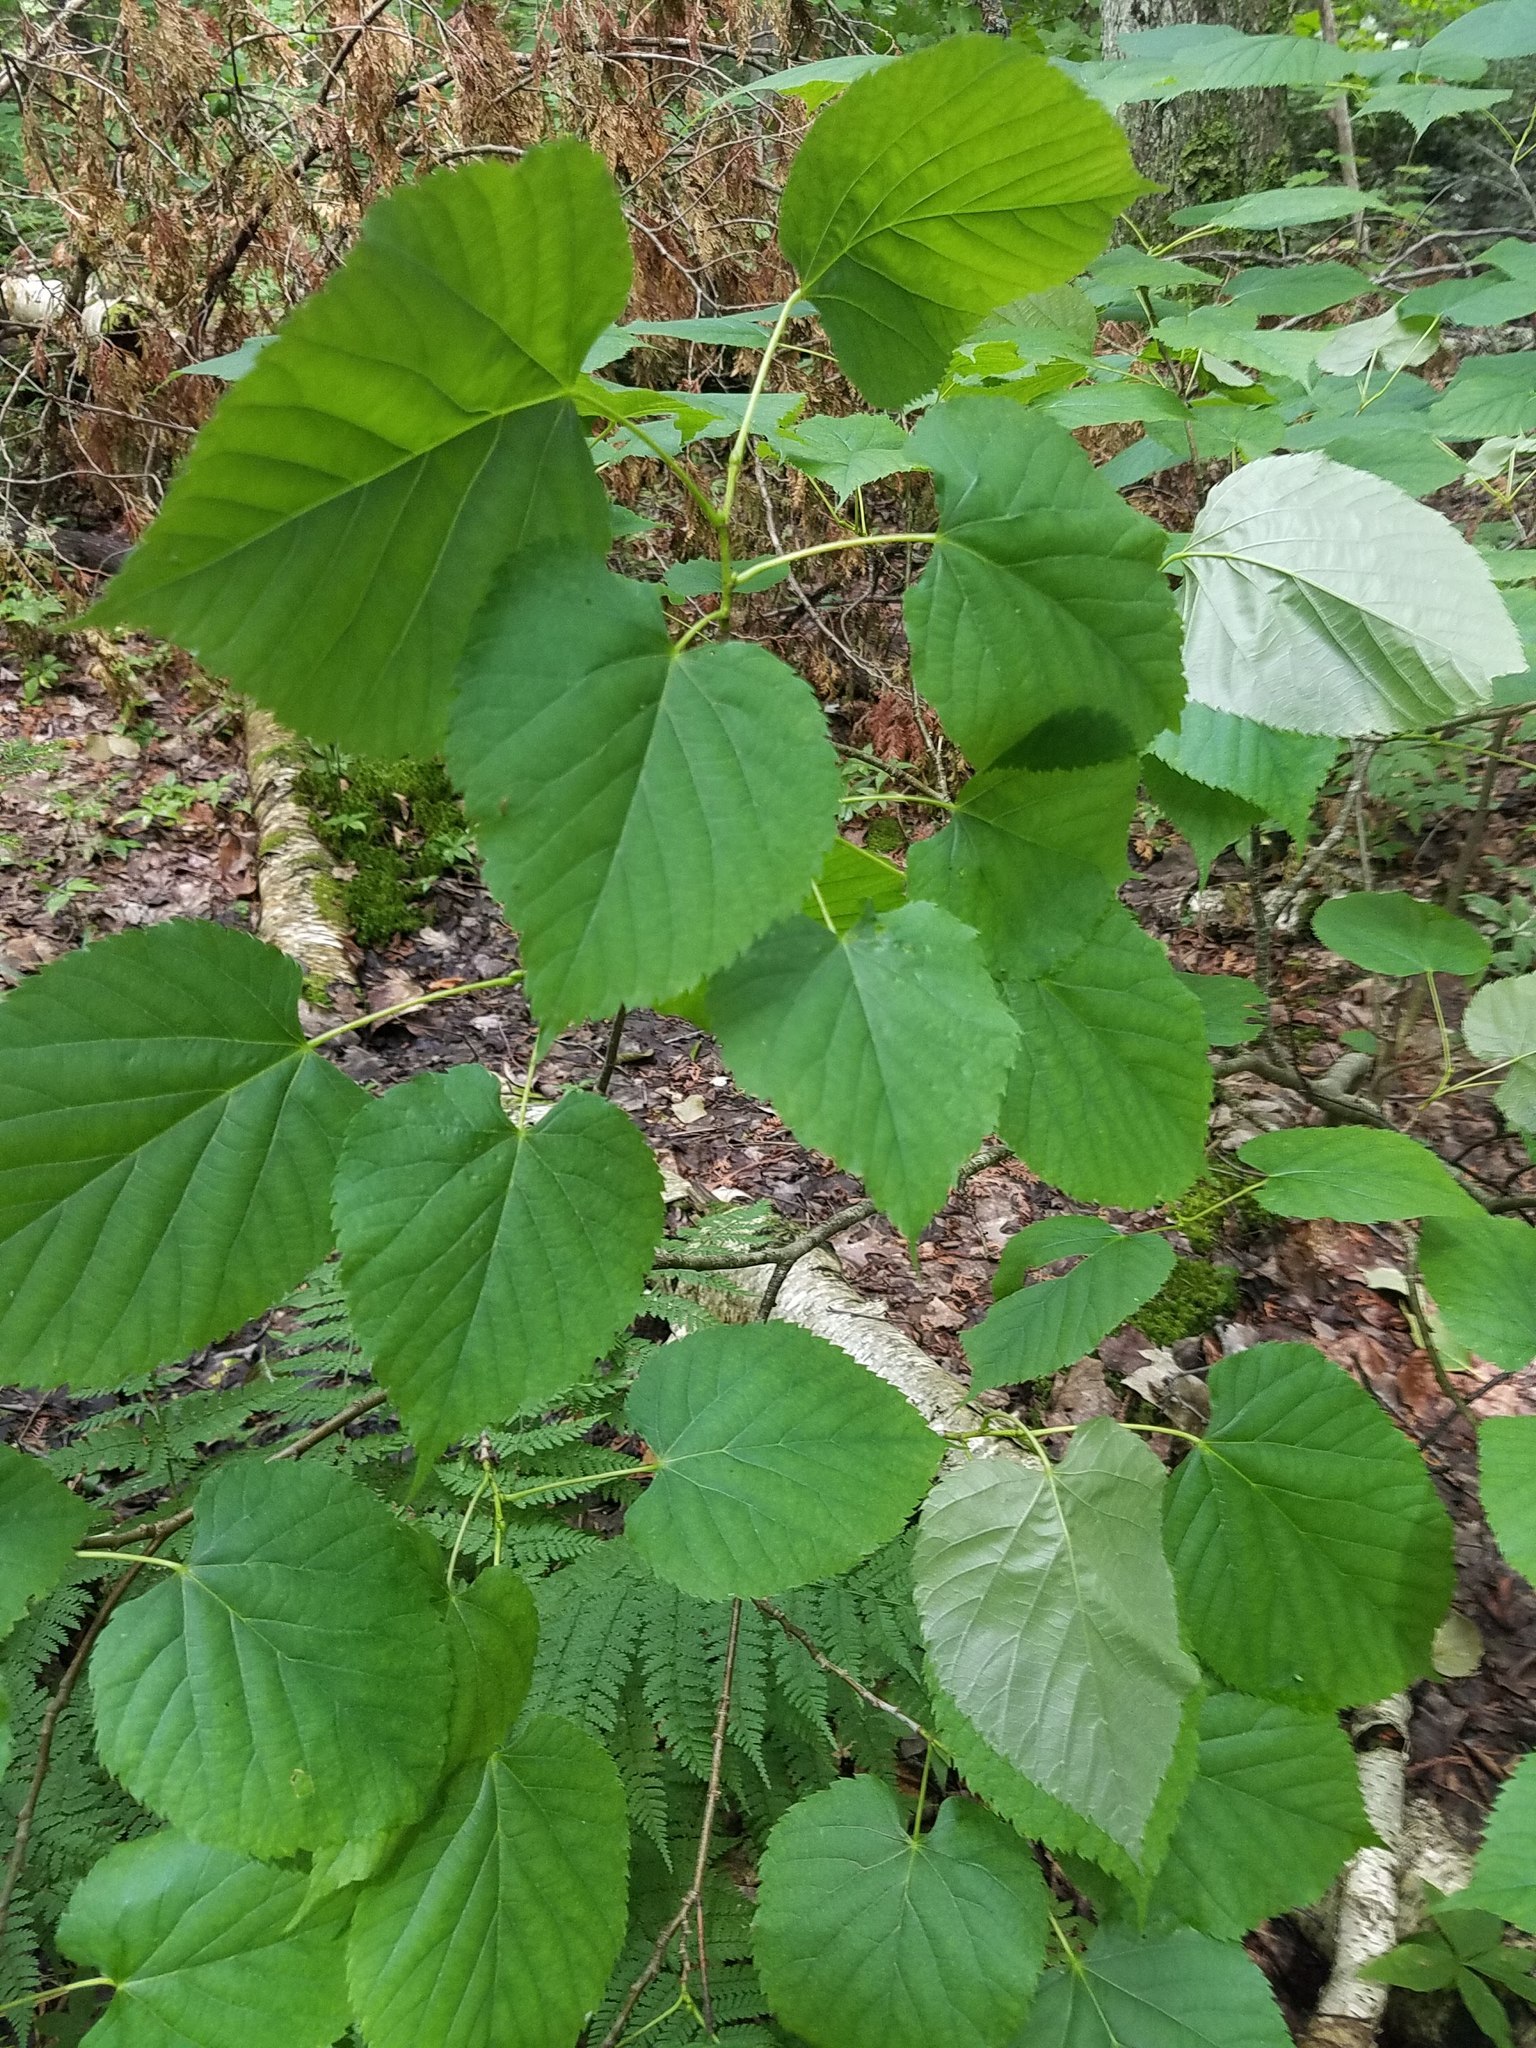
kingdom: Plantae
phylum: Tracheophyta
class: Magnoliopsida
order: Malvales
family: Malvaceae
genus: Tilia
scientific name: Tilia americana
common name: Basswood
